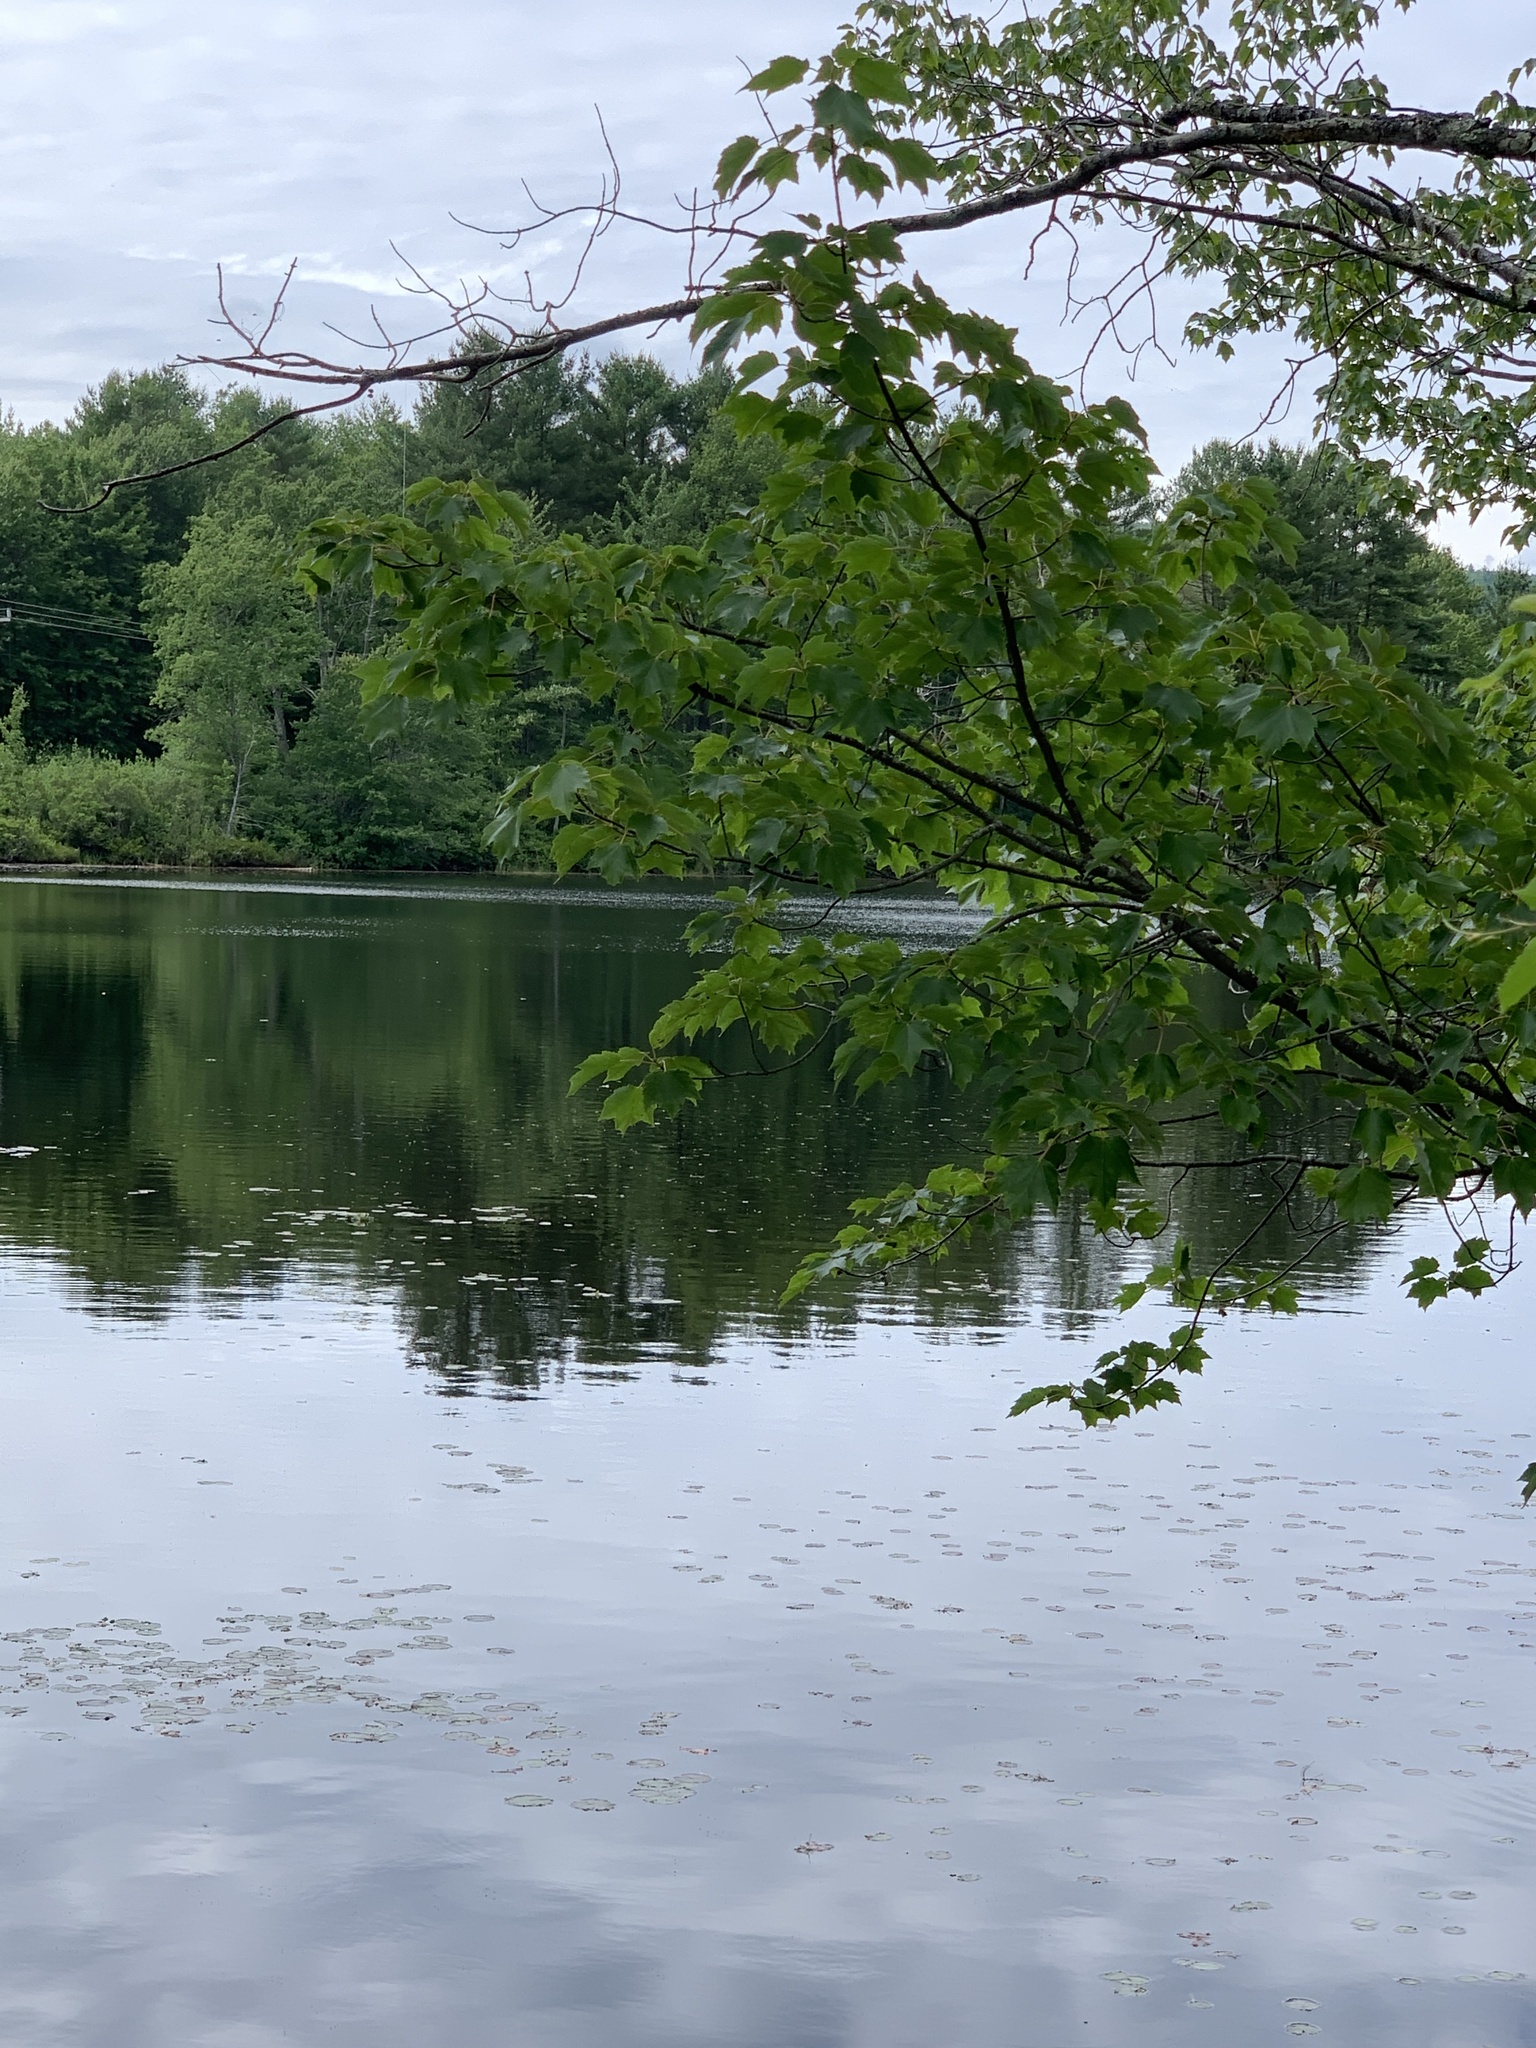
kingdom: Plantae
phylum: Tracheophyta
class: Magnoliopsida
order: Sapindales
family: Sapindaceae
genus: Acer
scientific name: Acer rubrum
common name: Red maple
